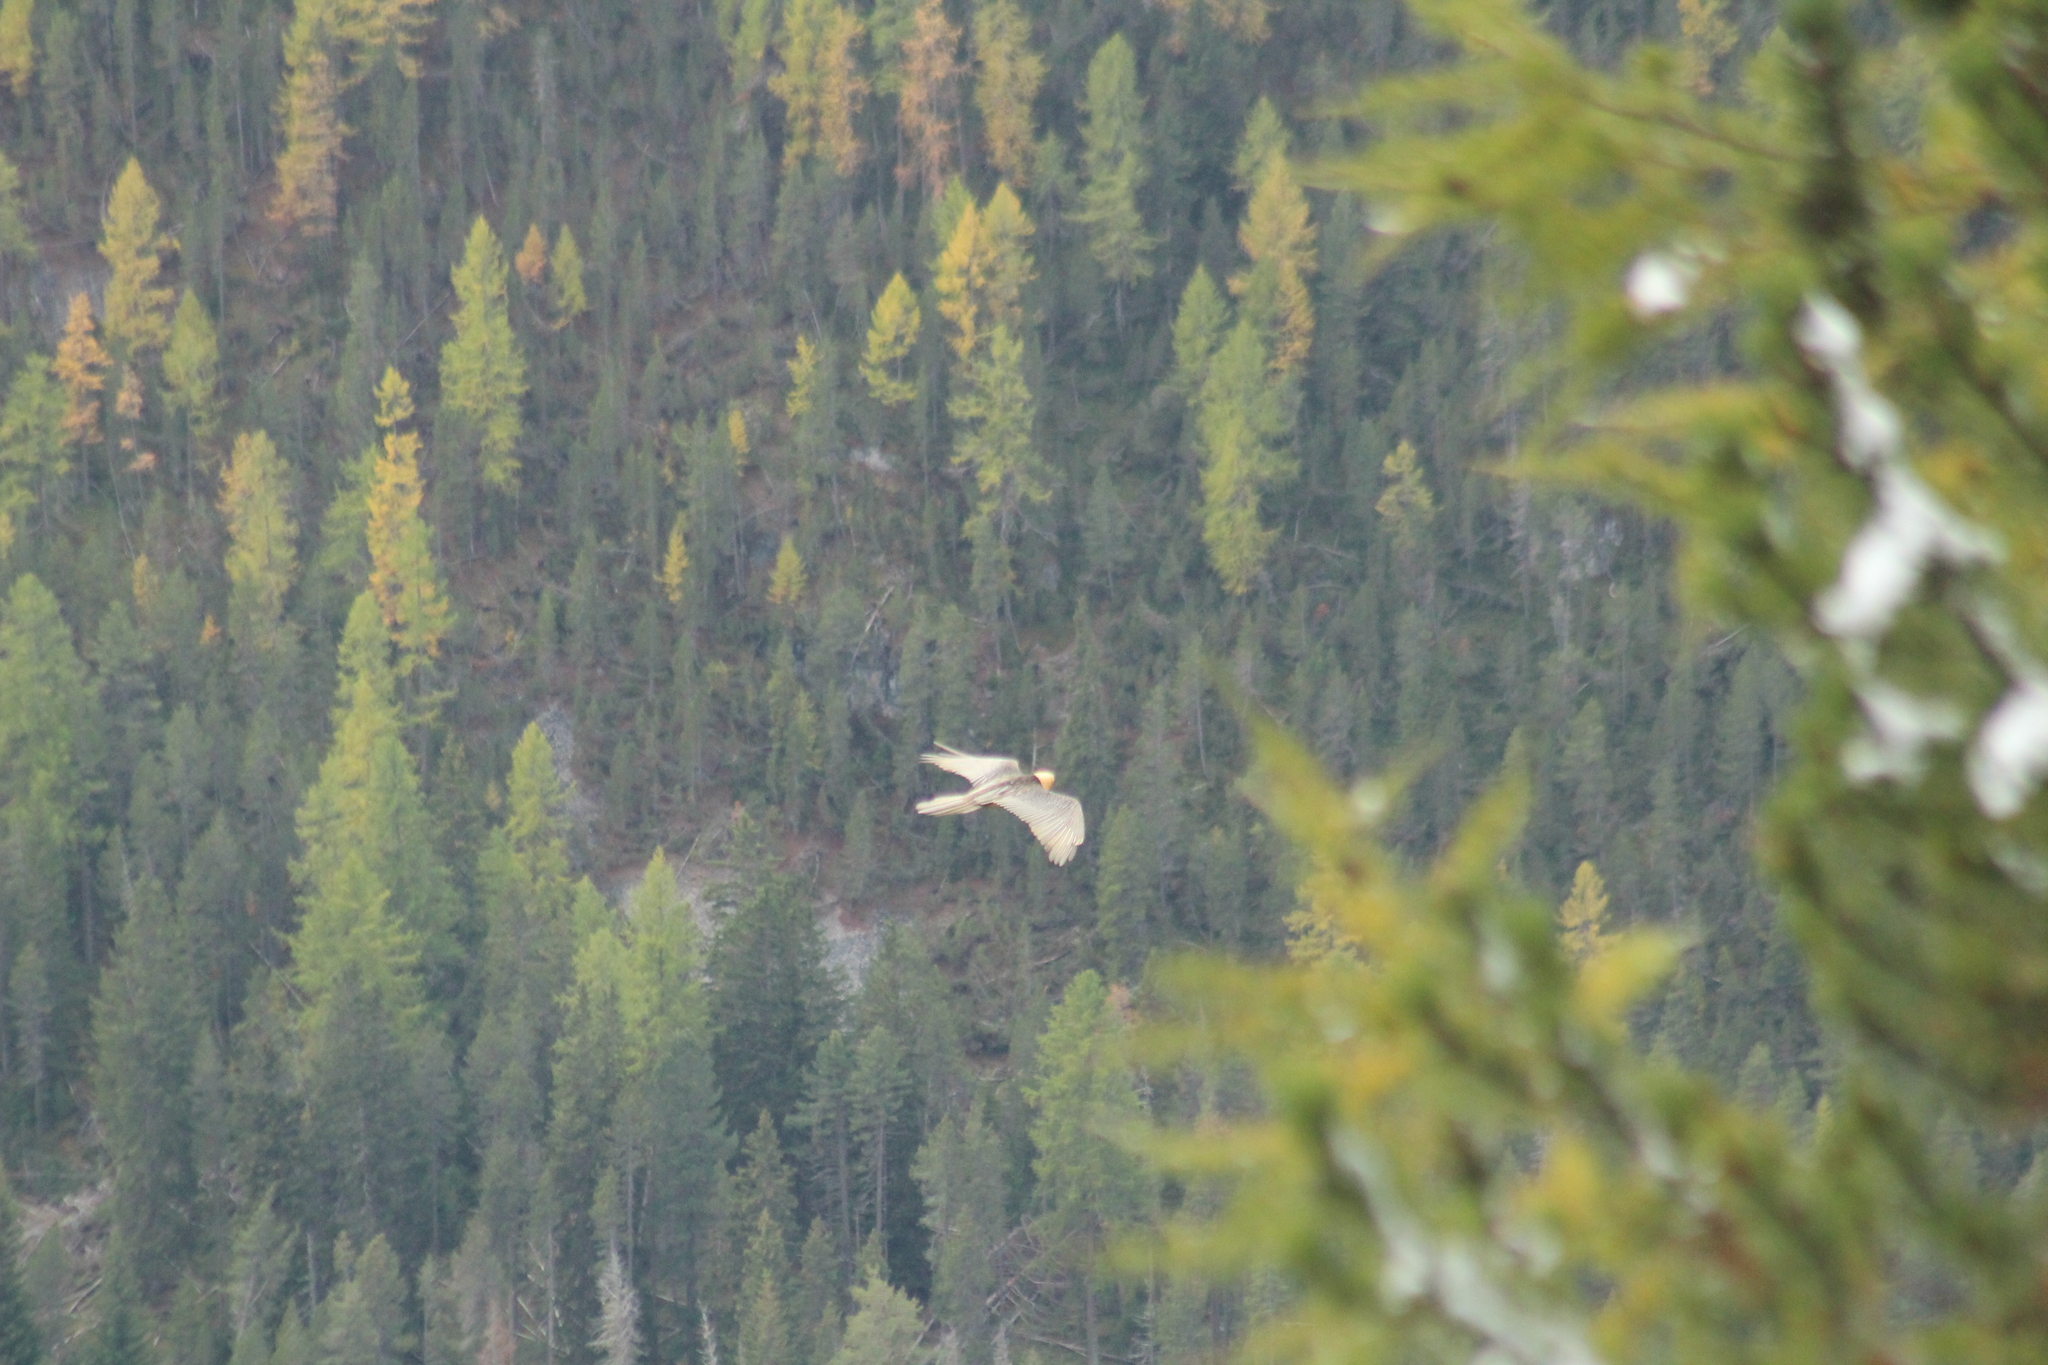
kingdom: Animalia
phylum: Chordata
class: Aves
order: Accipitriformes
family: Accipitridae
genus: Gypaetus
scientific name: Gypaetus barbatus
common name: Bearded vulture
